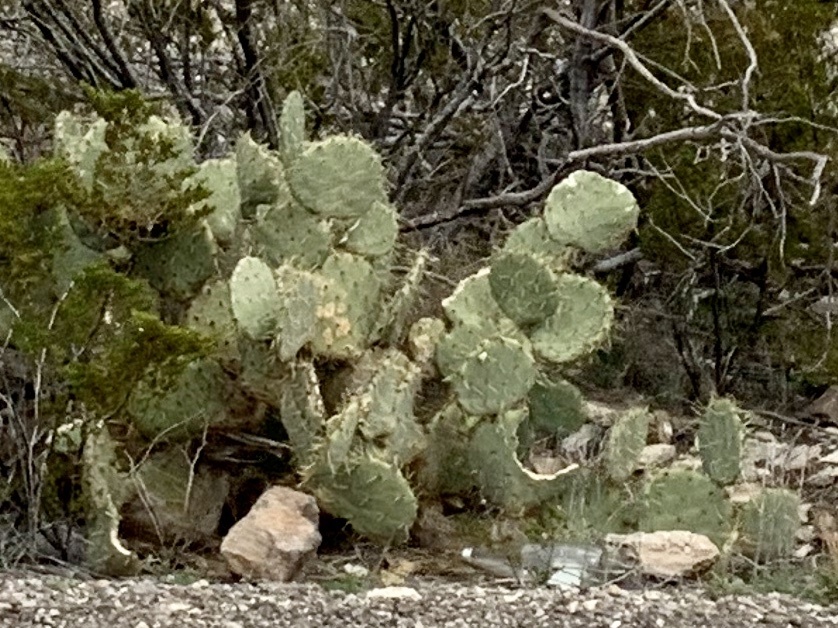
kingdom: Plantae
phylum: Tracheophyta
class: Magnoliopsida
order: Caryophyllales
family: Cactaceae
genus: Opuntia
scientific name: Opuntia engelmannii
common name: Cactus-apple
